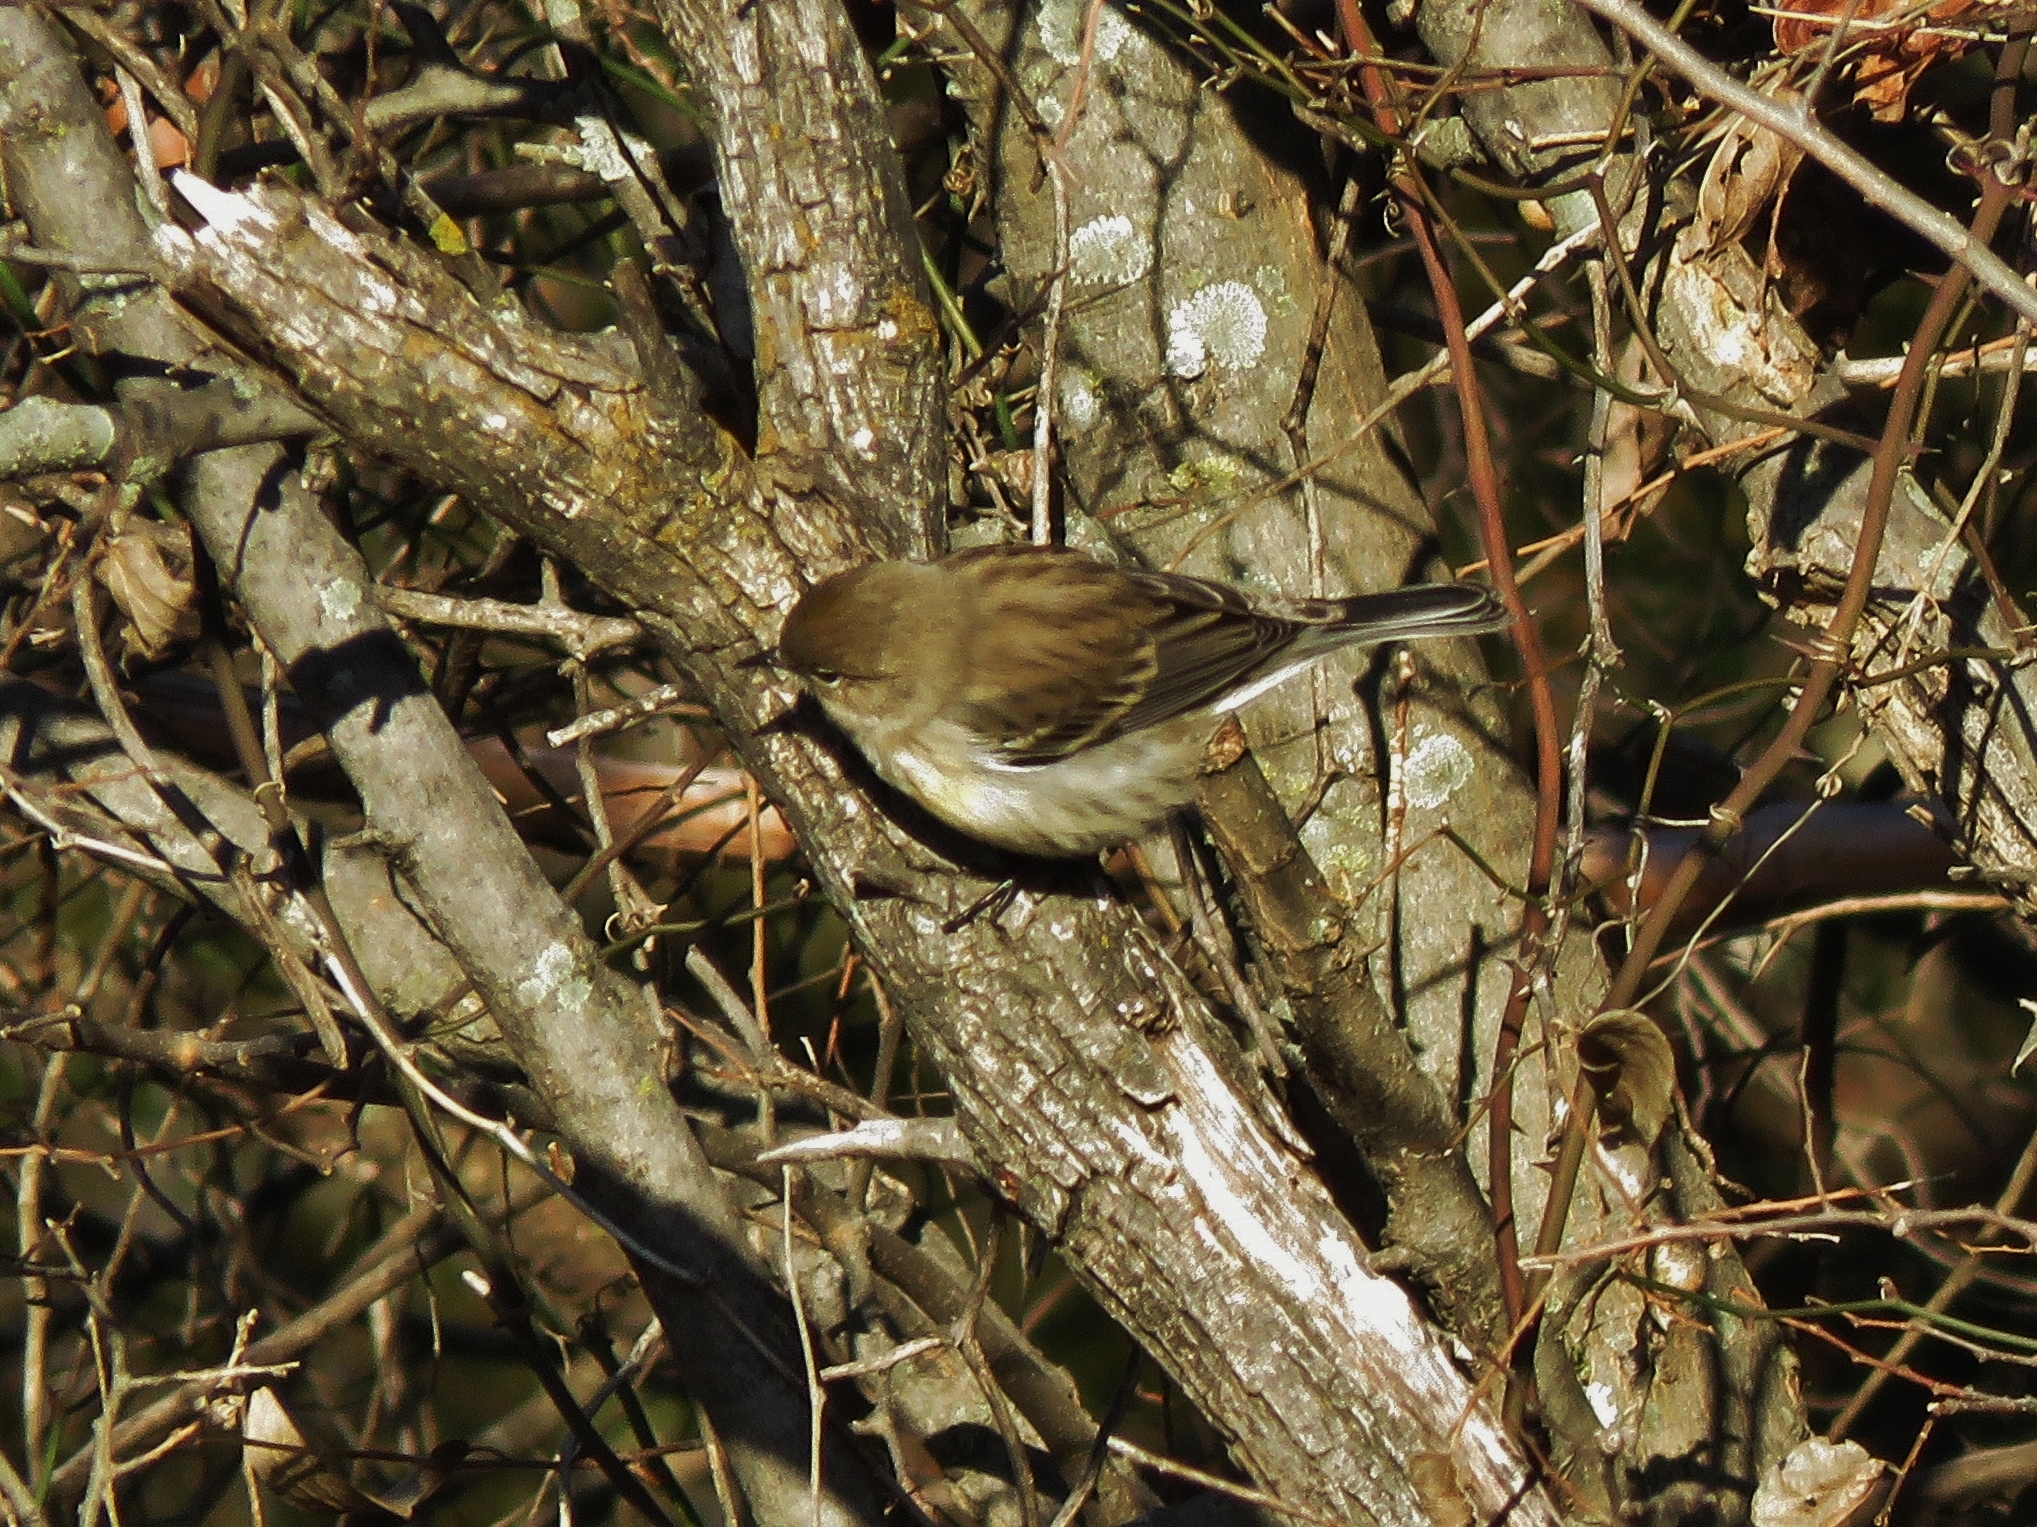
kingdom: Animalia
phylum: Chordata
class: Aves
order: Passeriformes
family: Parulidae
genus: Setophaga
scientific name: Setophaga coronata
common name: Myrtle warbler
